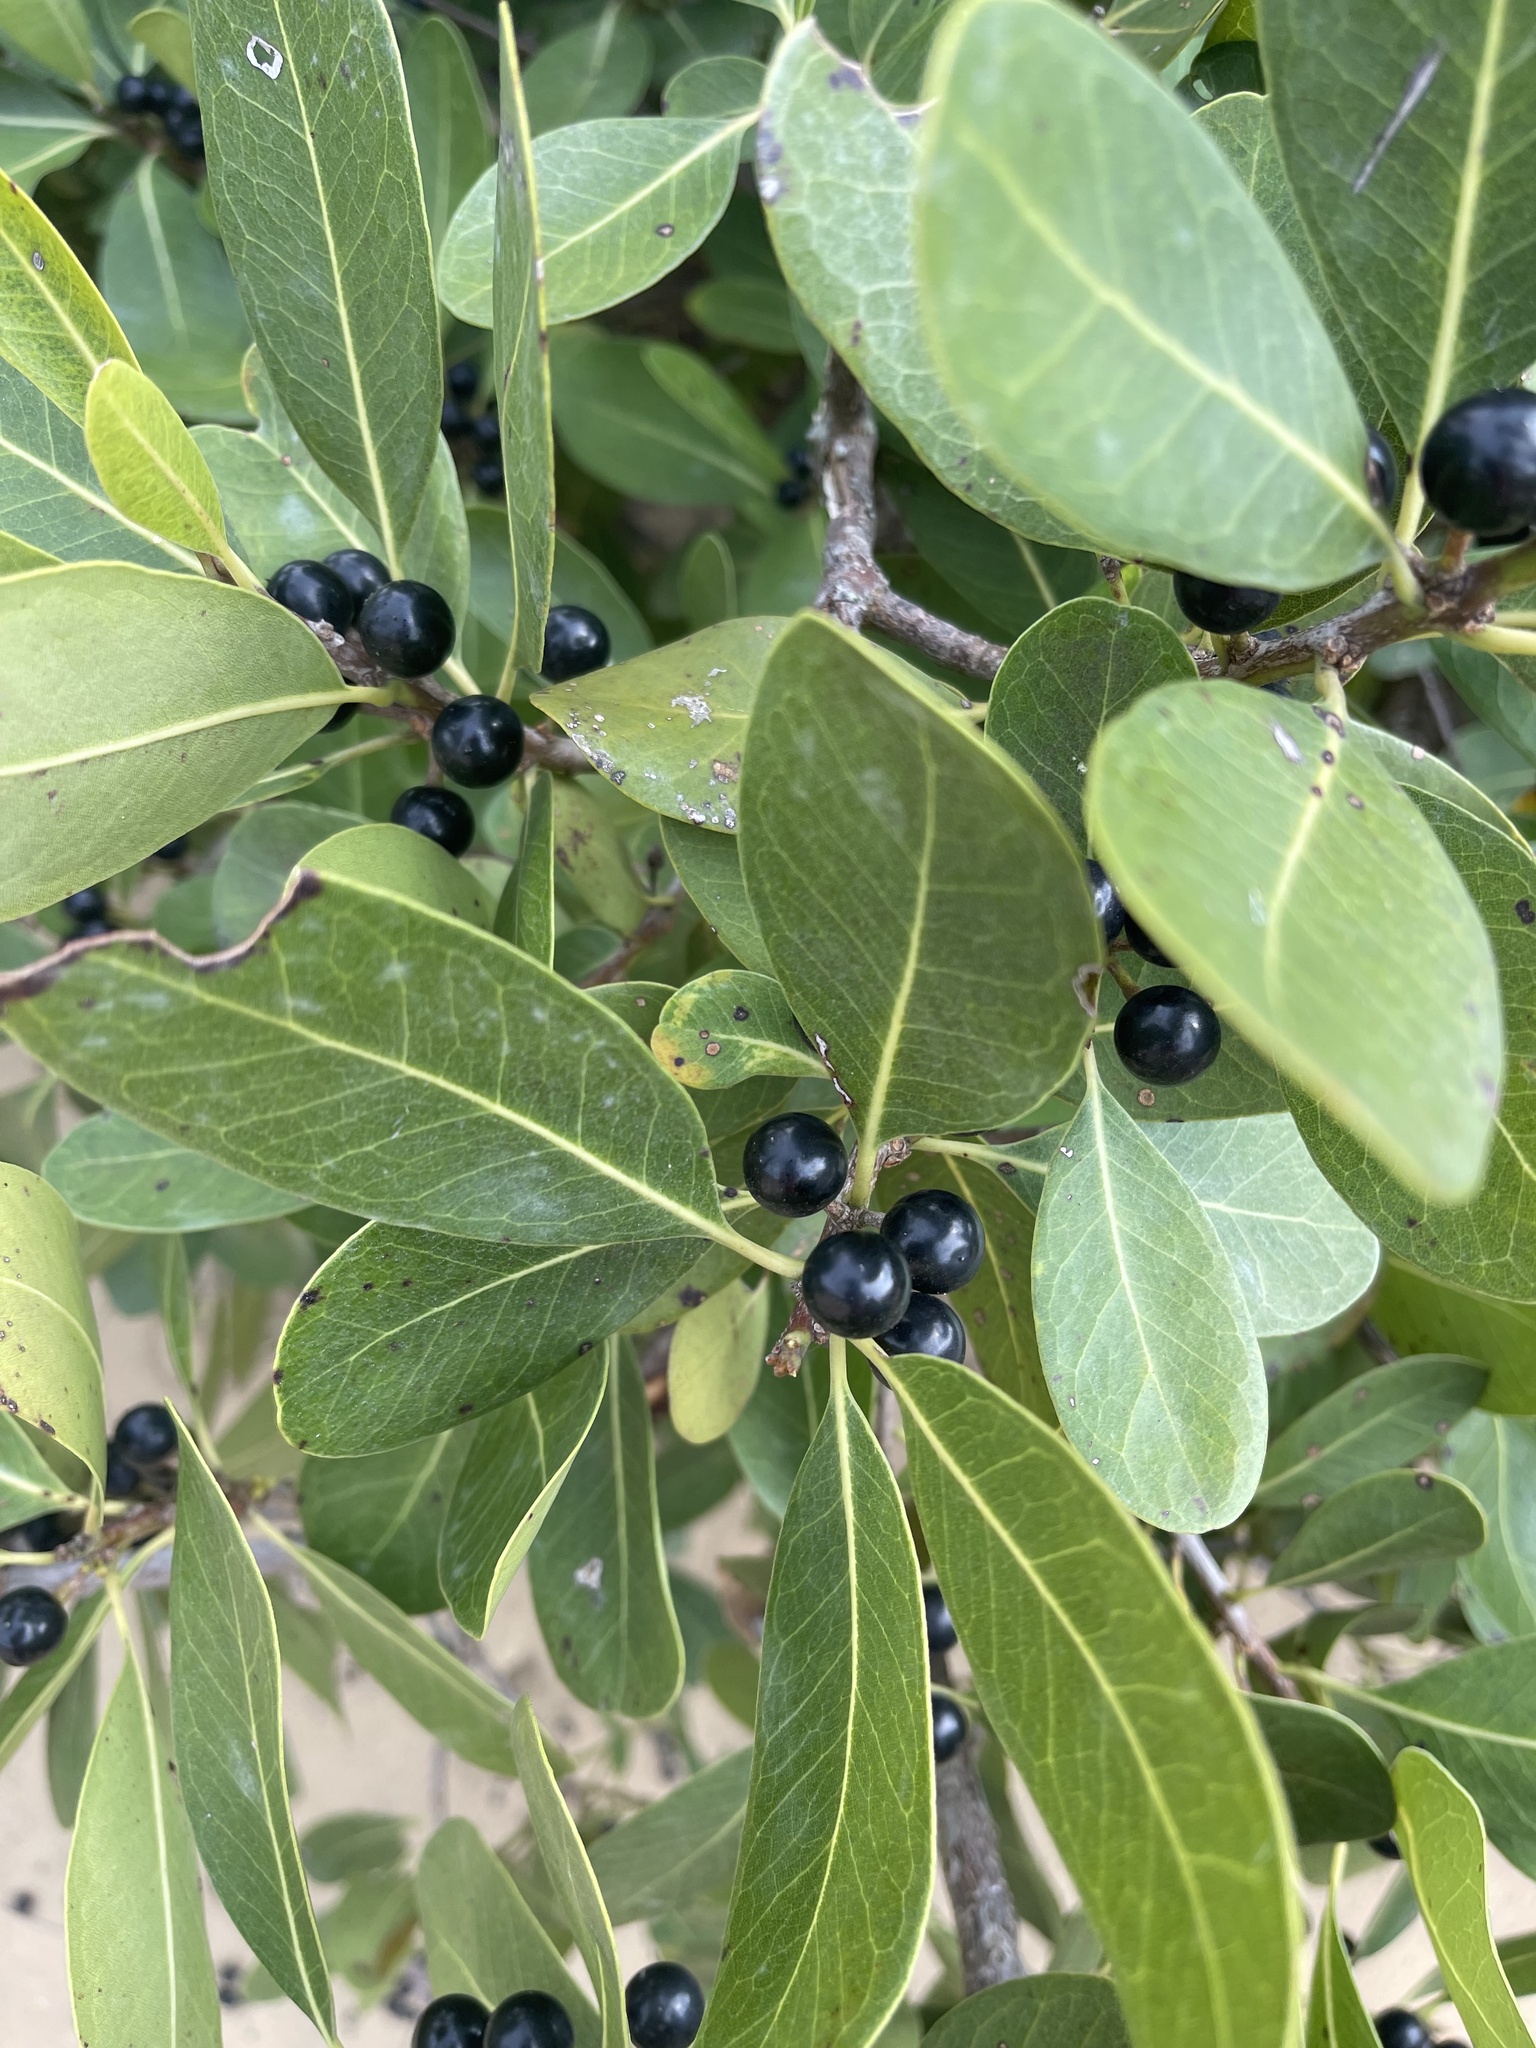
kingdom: Plantae
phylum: Tracheophyta
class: Magnoliopsida
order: Ericales
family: Sapotaceae
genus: Sideroxylon
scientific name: Sideroxylon inerme
